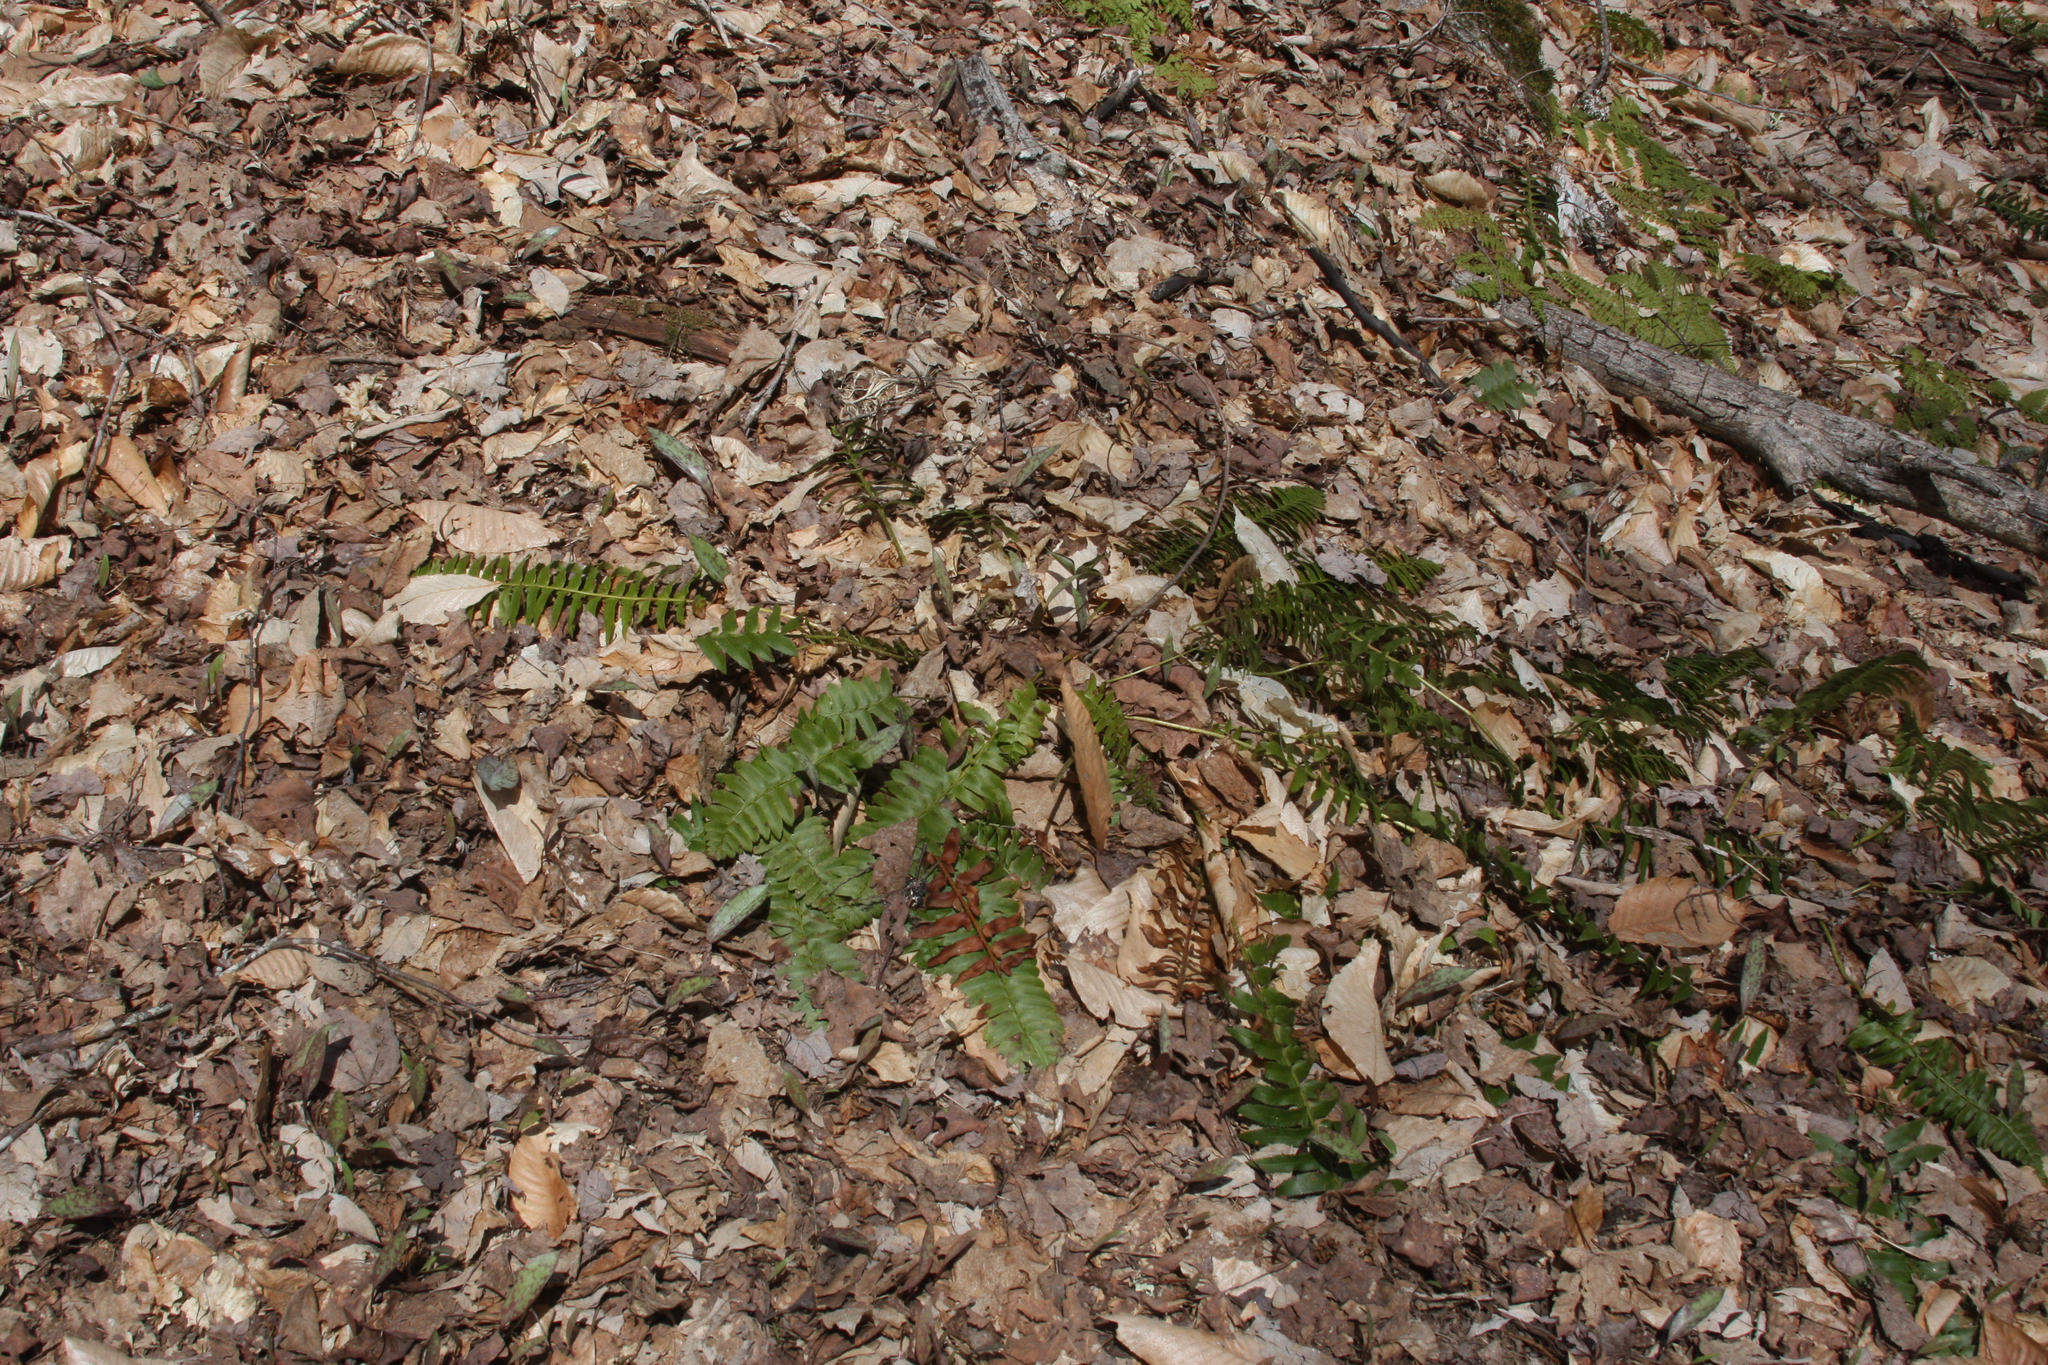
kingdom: Plantae
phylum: Tracheophyta
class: Polypodiopsida
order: Polypodiales
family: Dryopteridaceae
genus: Polystichum
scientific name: Polystichum acrostichoides
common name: Christmas fern
